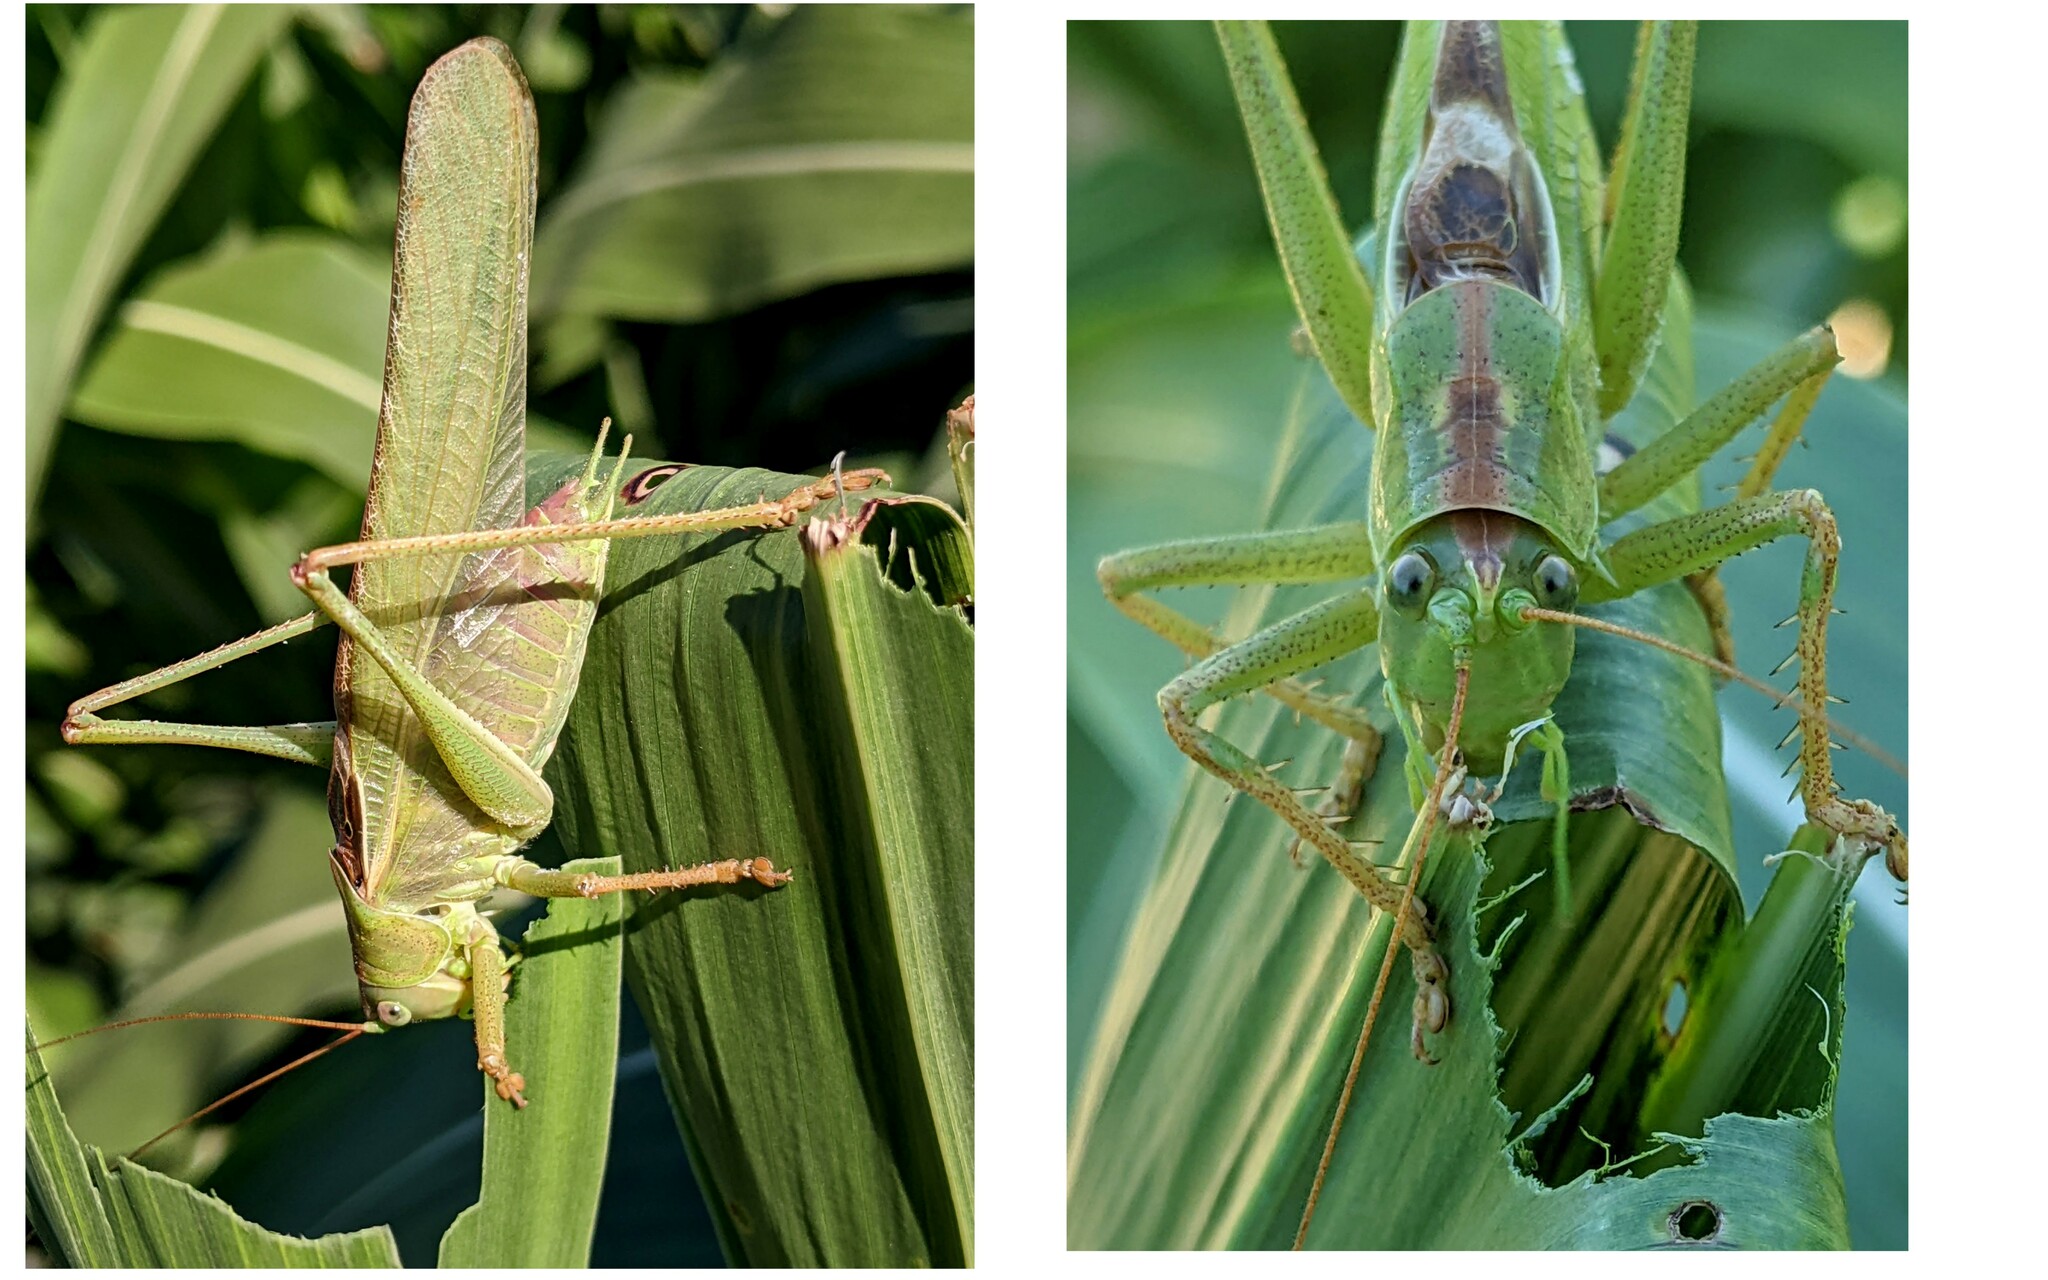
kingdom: Animalia
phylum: Arthropoda
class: Insecta
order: Orthoptera
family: Tettigoniidae
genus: Tettigonia
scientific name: Tettigonia viridissima
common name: Great green bush-cricket
